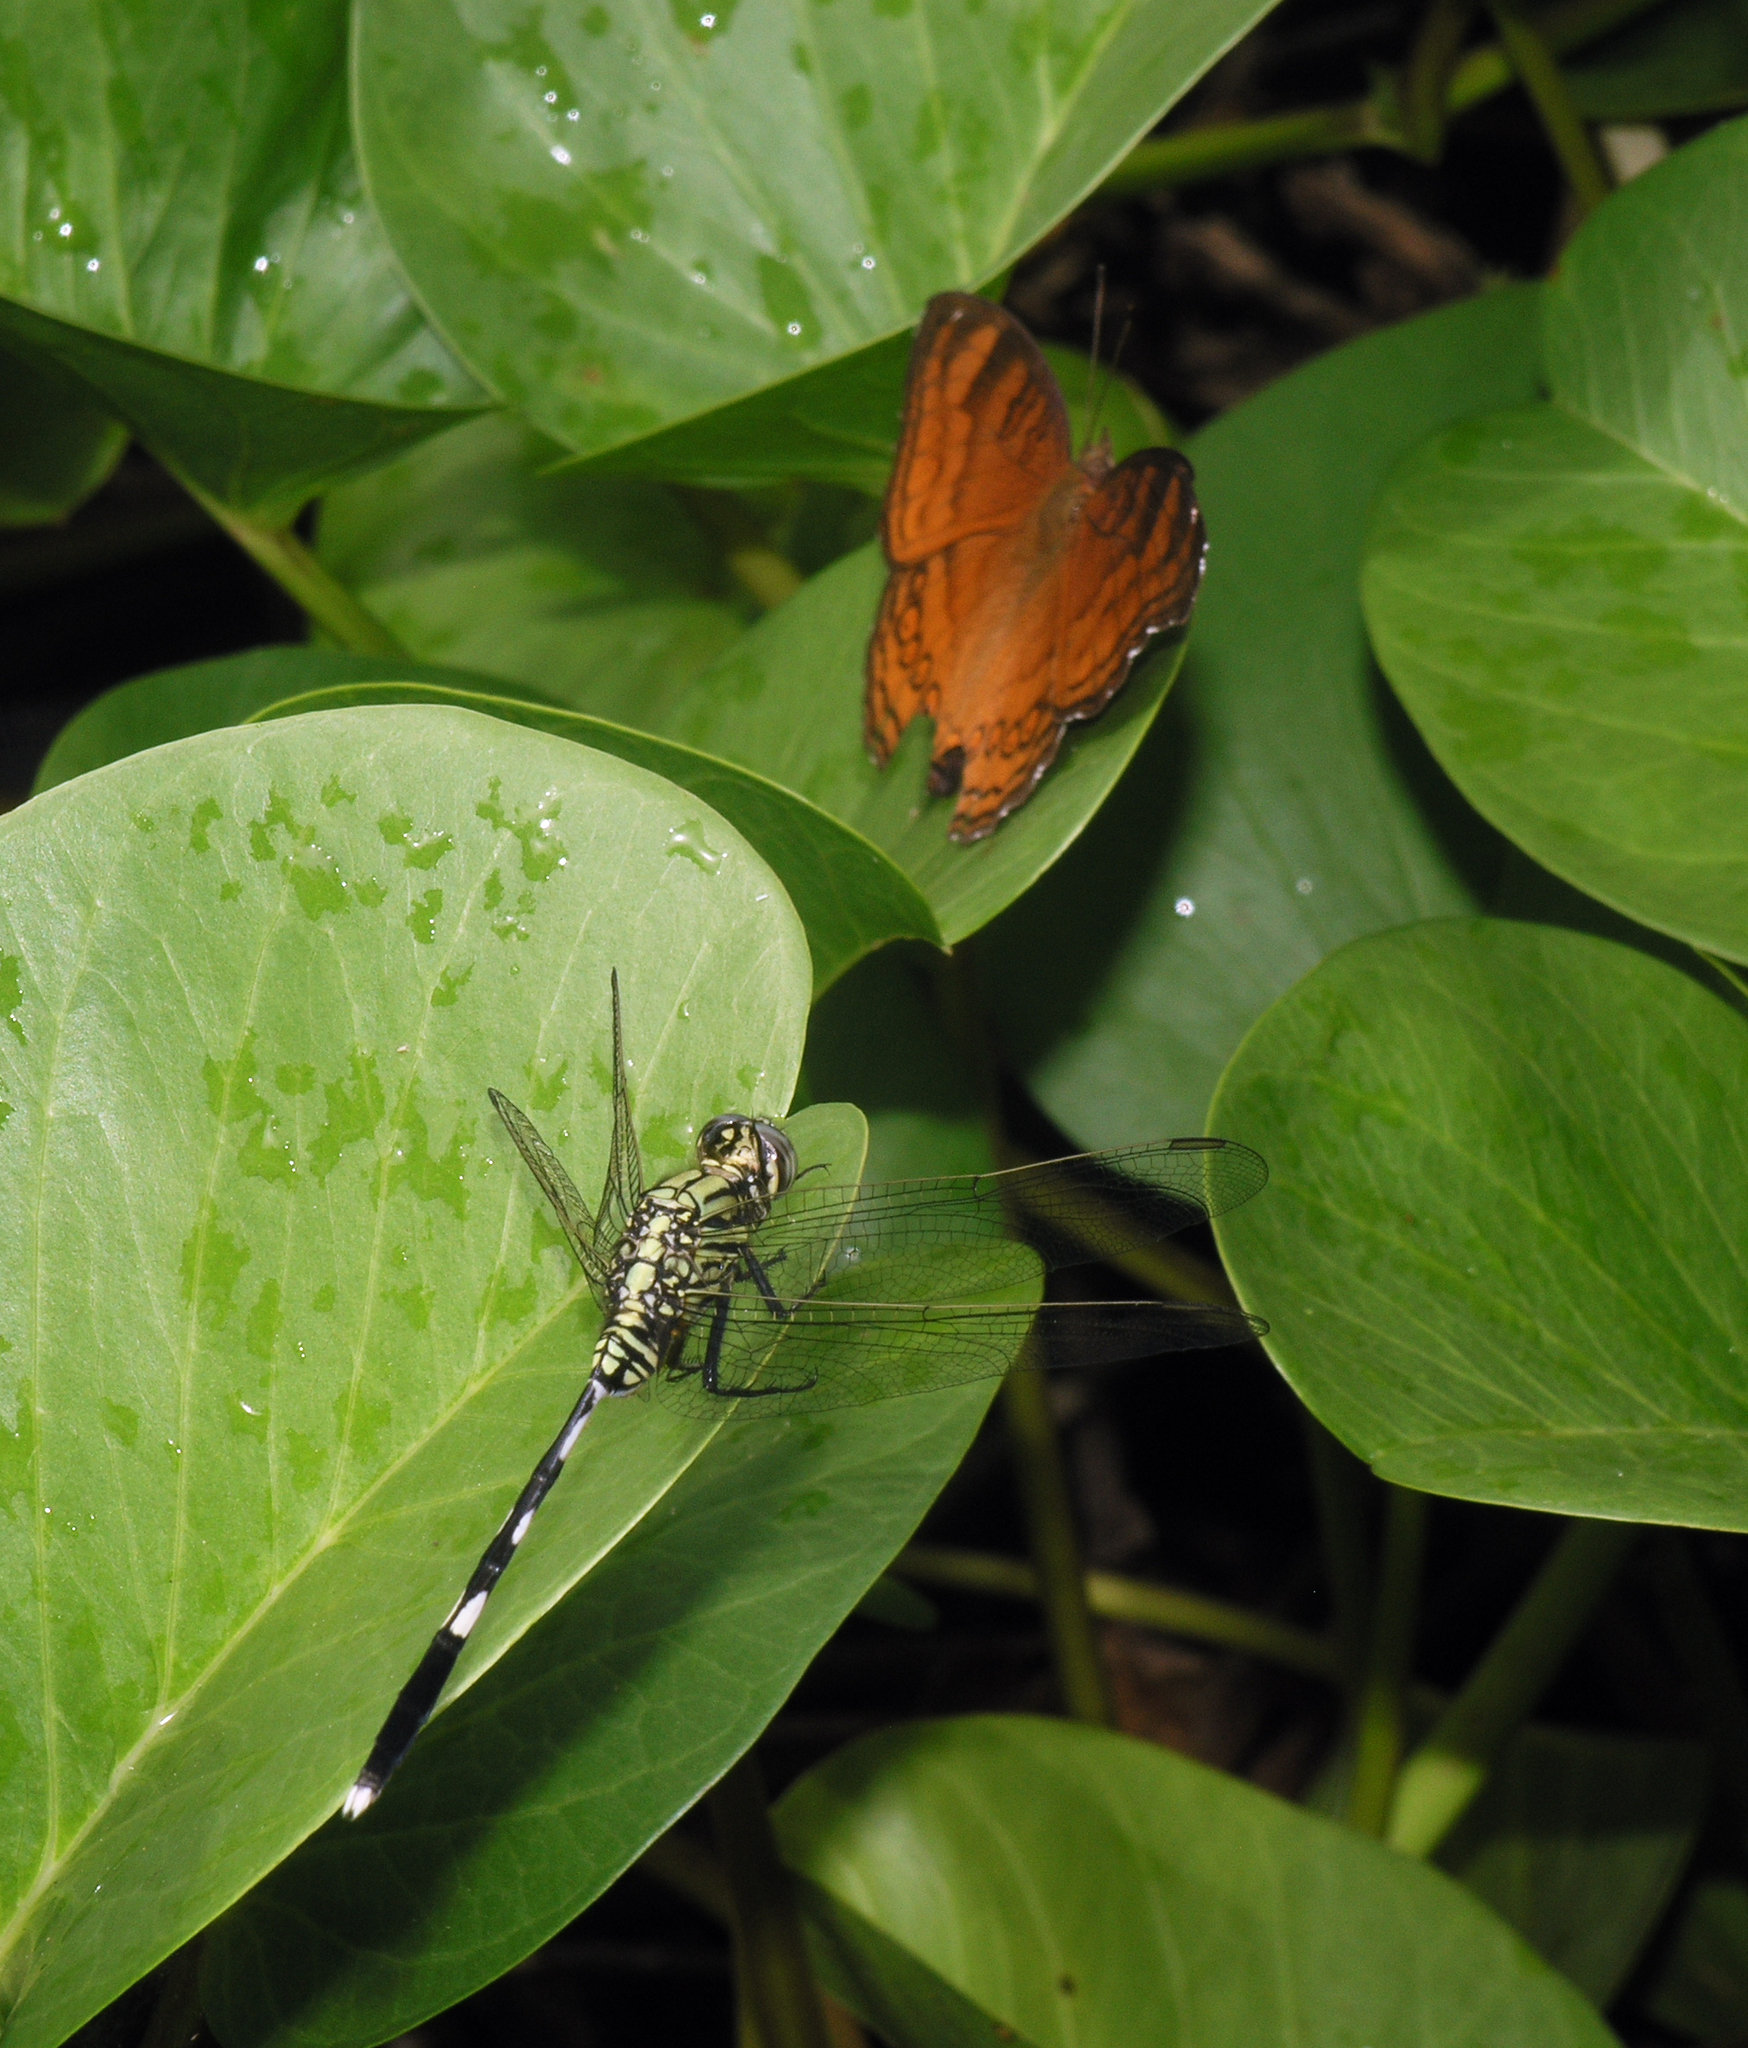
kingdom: Animalia
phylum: Arthropoda
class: Insecta
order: Odonata
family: Libellulidae
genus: Orthetrum
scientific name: Orthetrum sabina
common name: Slender skimmer
